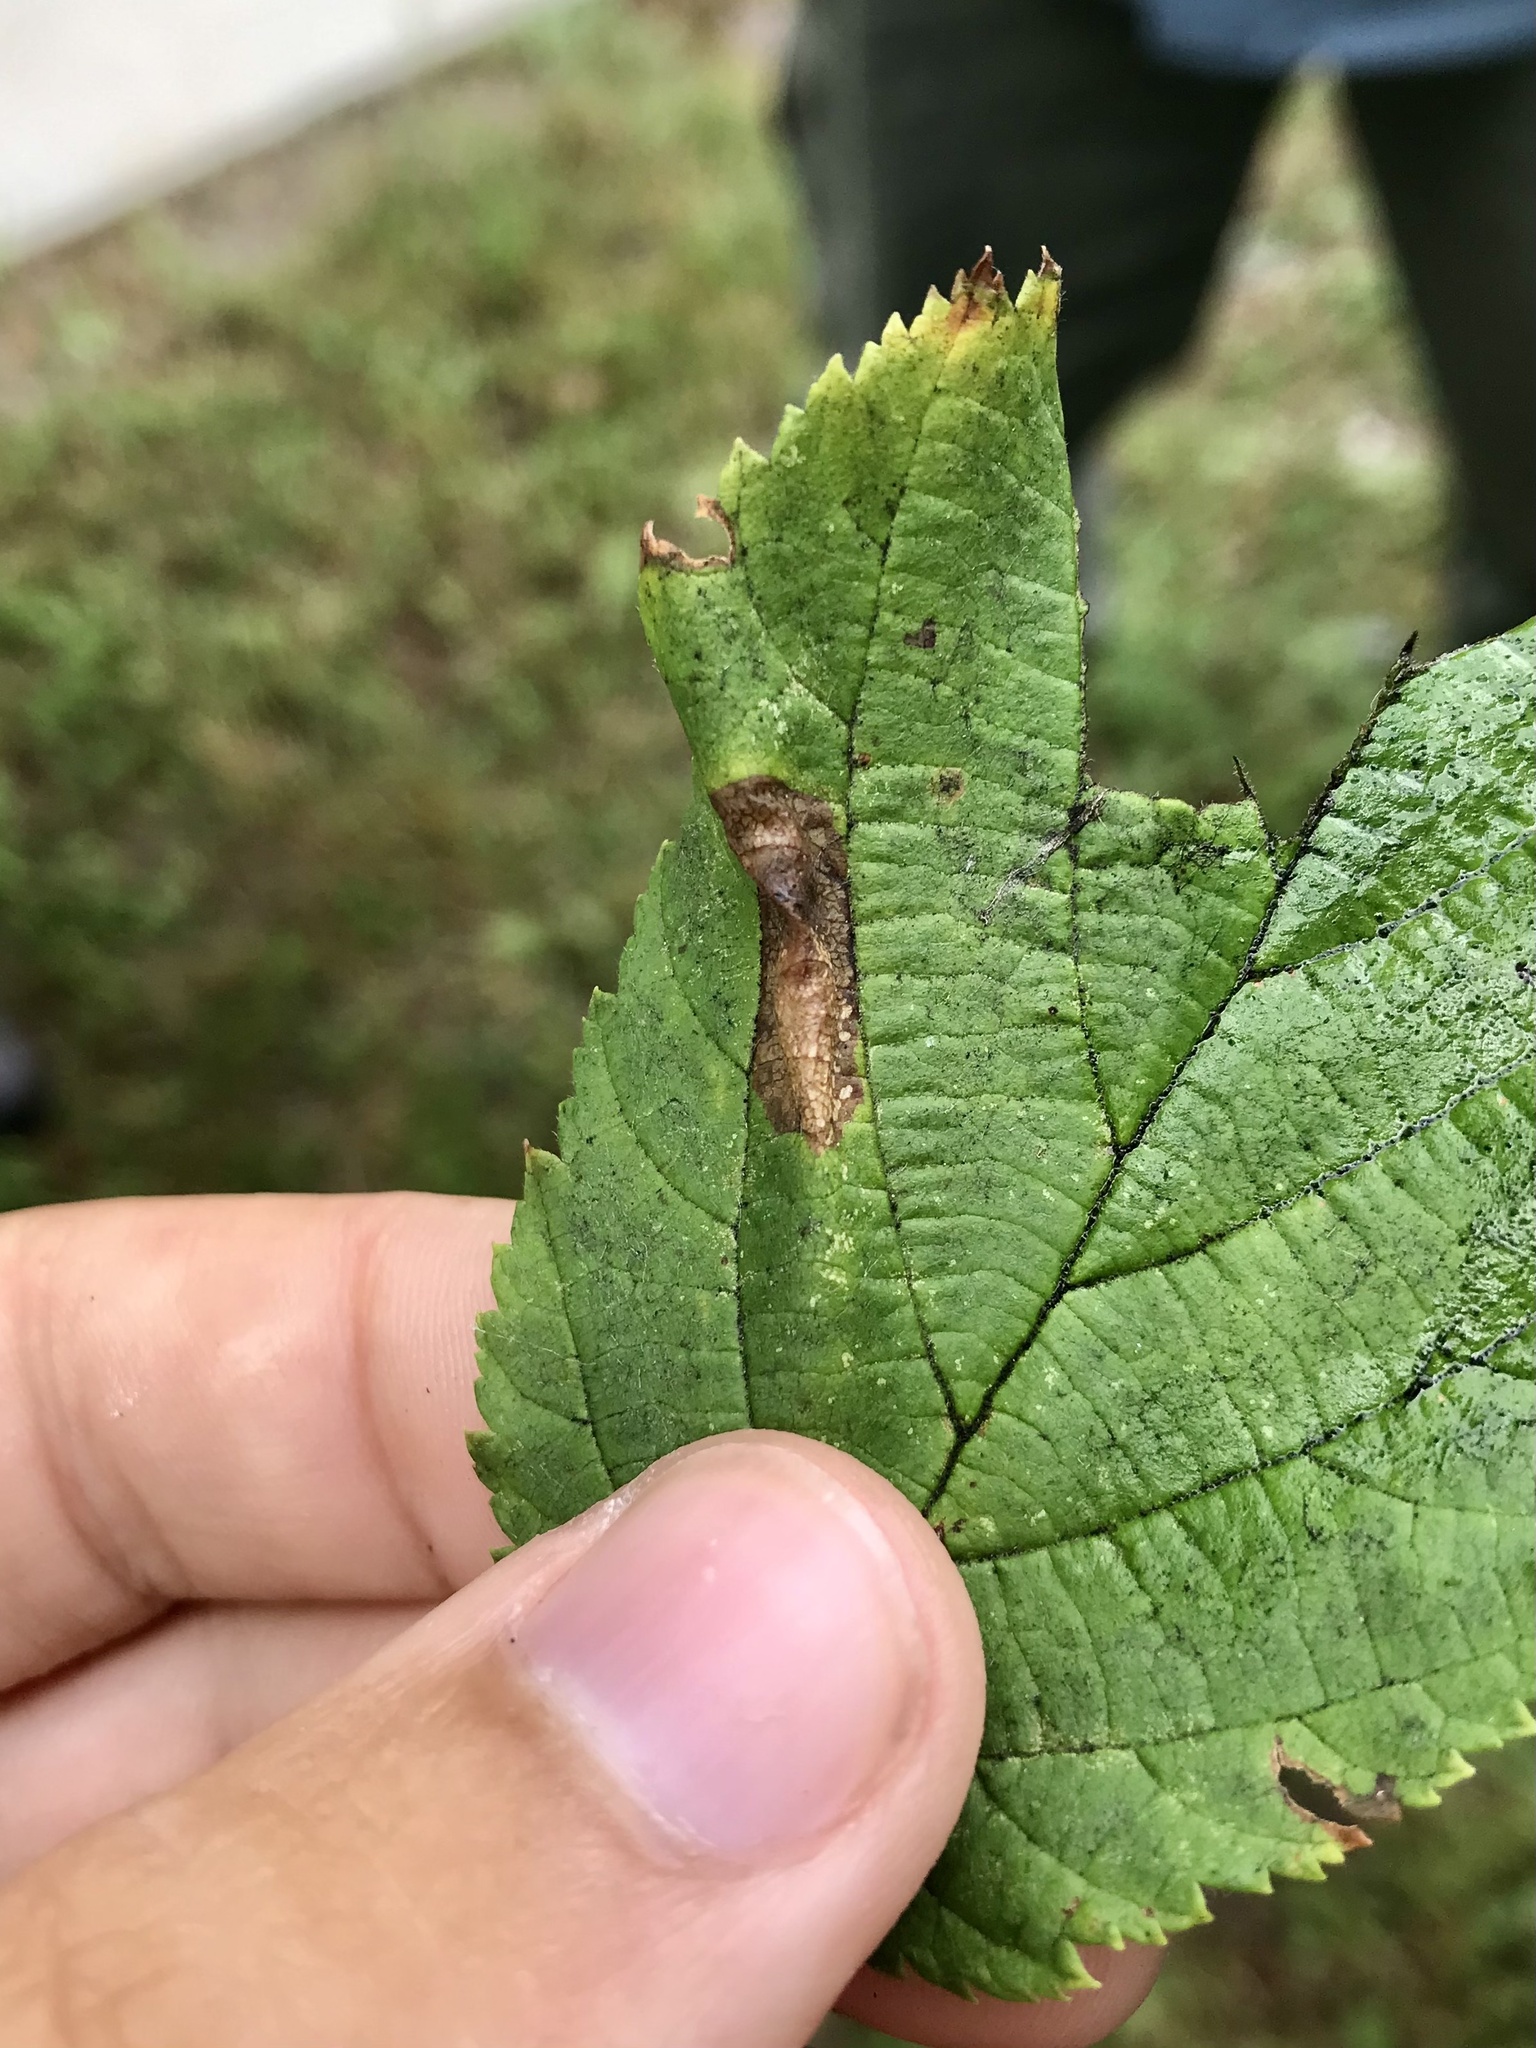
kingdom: Animalia
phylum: Arthropoda
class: Insecta
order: Lepidoptera
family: Gracillariidae
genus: Phyllonorycter
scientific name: Phyllonorycter intermixta
